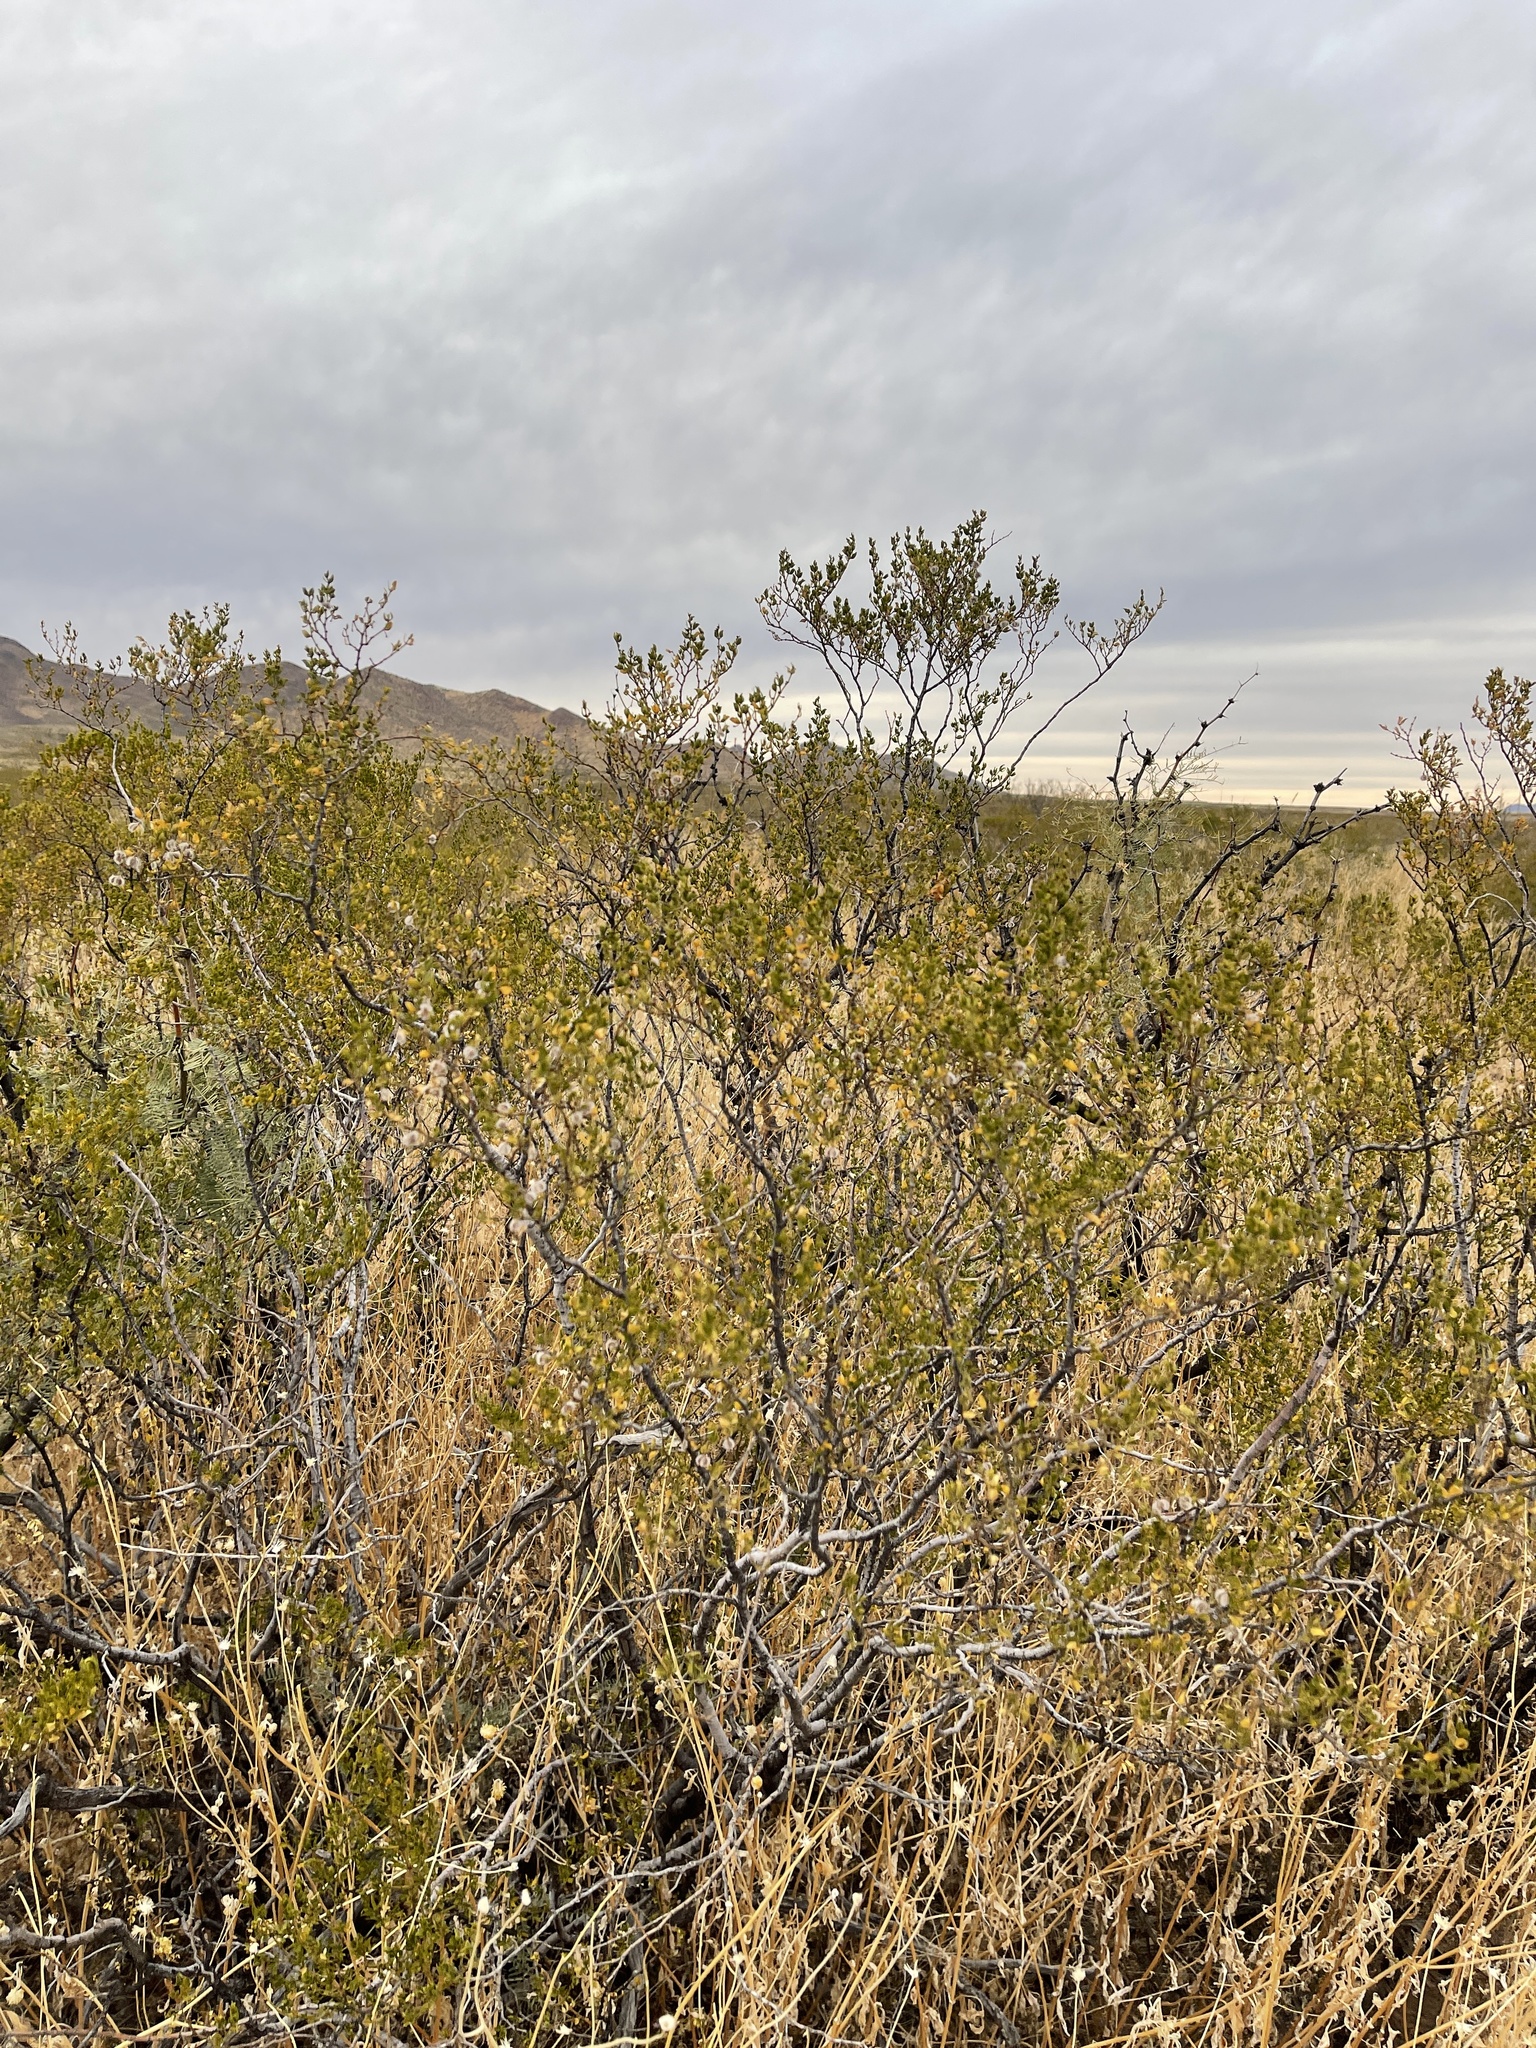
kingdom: Plantae
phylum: Tracheophyta
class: Magnoliopsida
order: Zygophyllales
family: Zygophyllaceae
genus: Larrea
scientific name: Larrea tridentata
